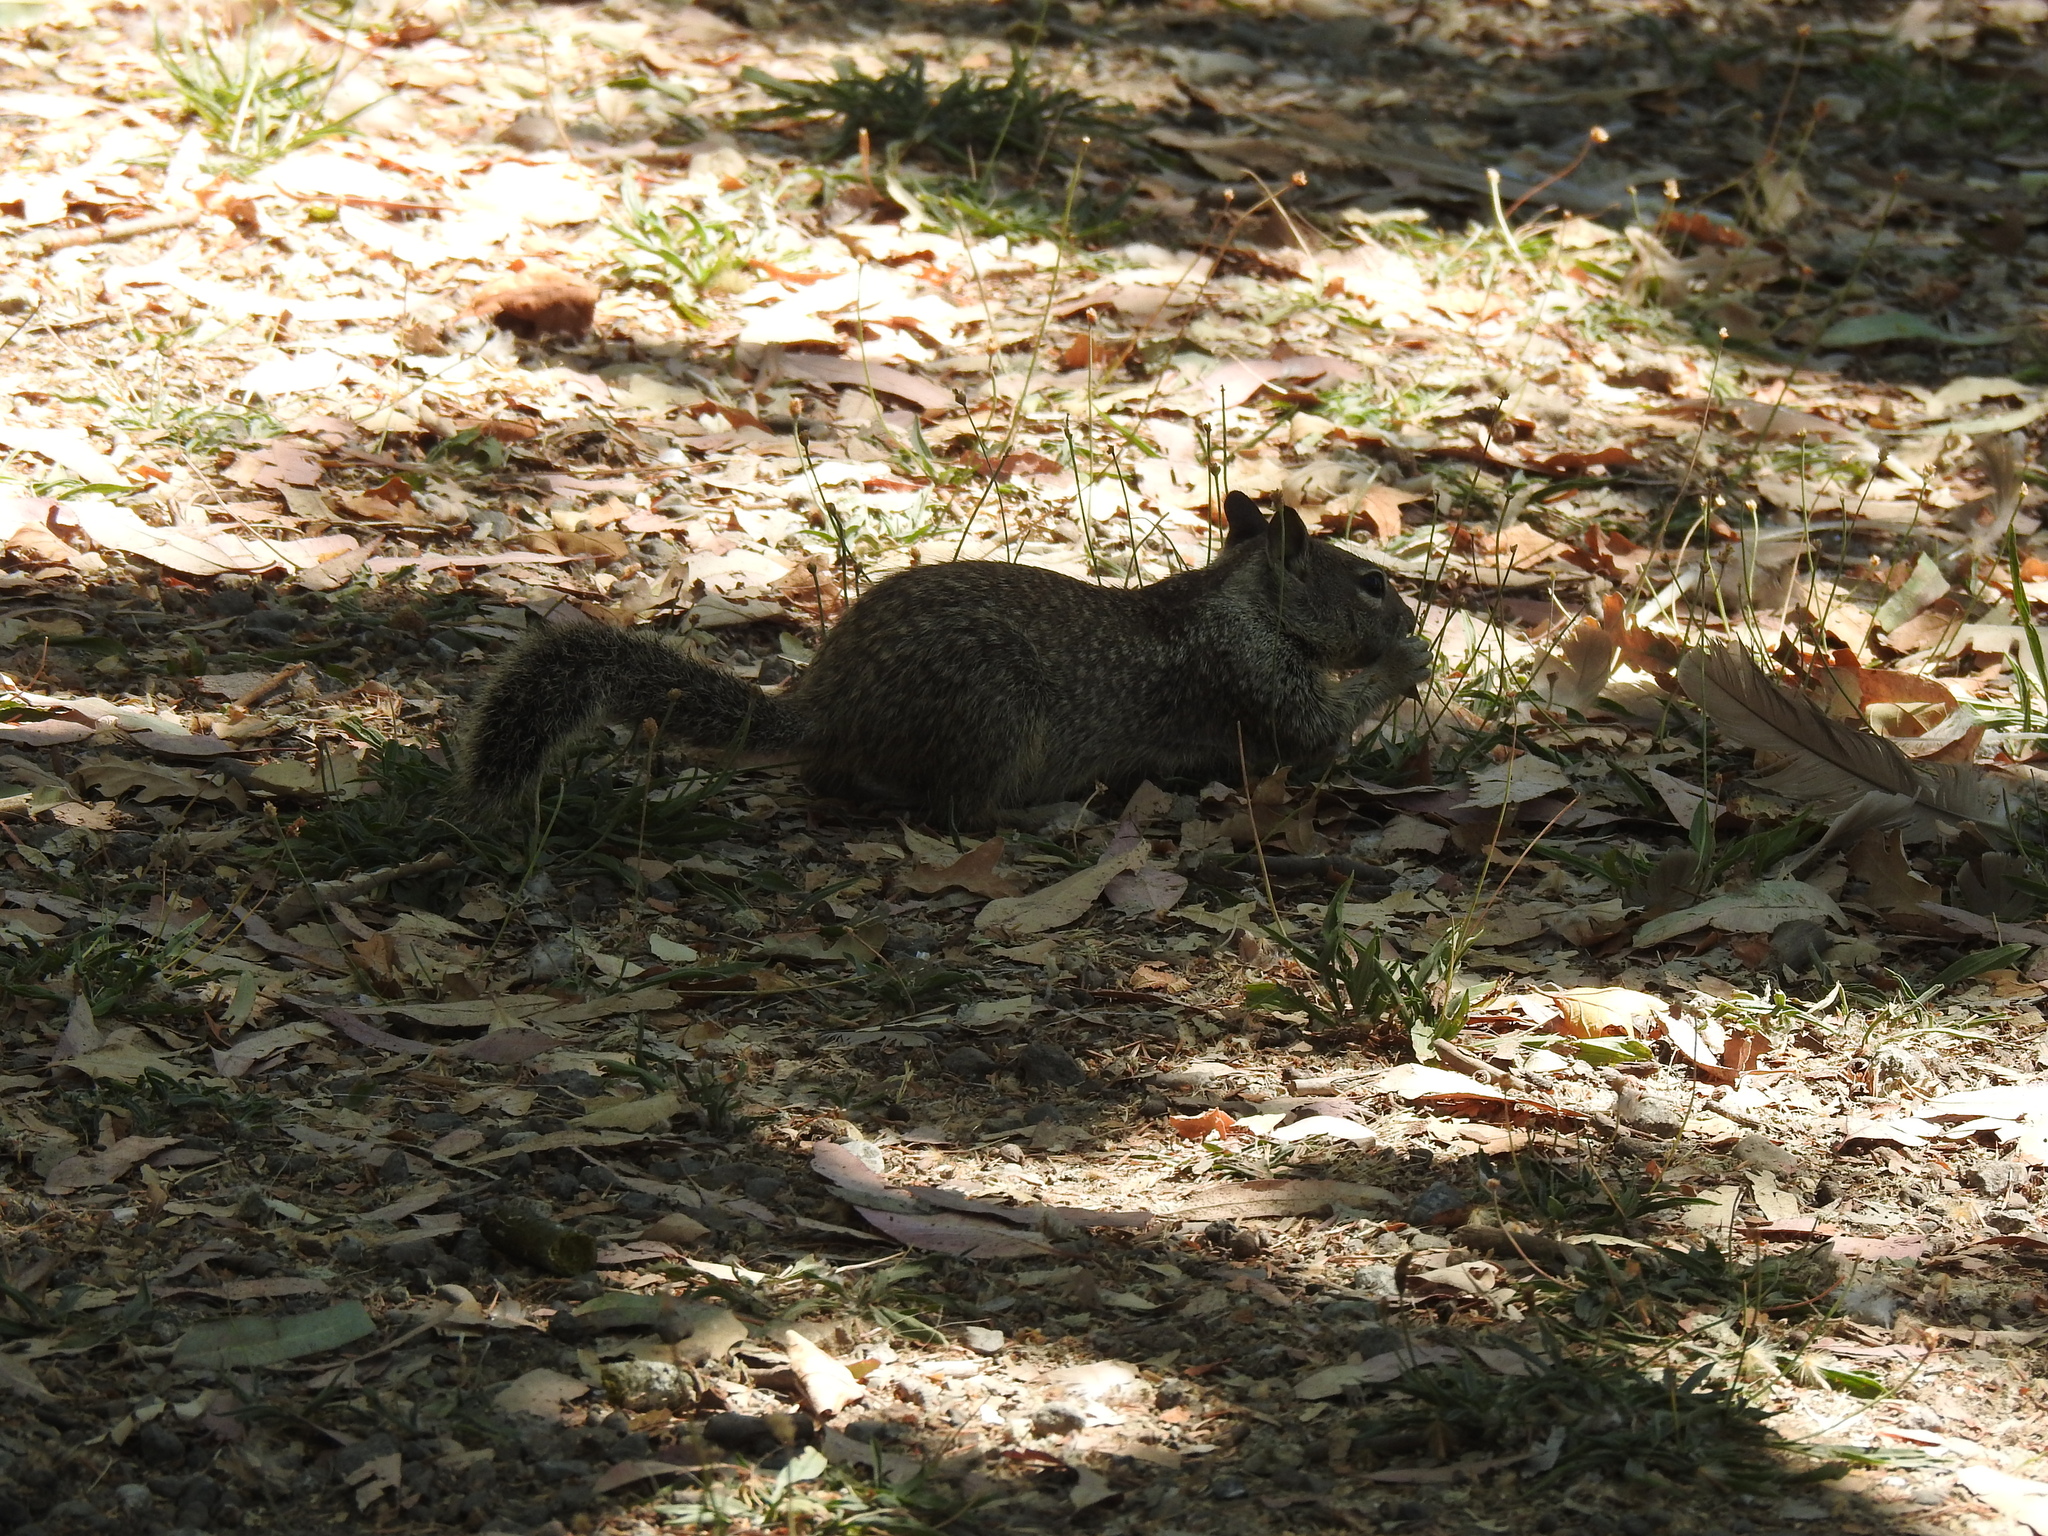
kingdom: Animalia
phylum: Chordata
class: Mammalia
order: Rodentia
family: Sciuridae
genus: Otospermophilus
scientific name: Otospermophilus beecheyi
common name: California ground squirrel
